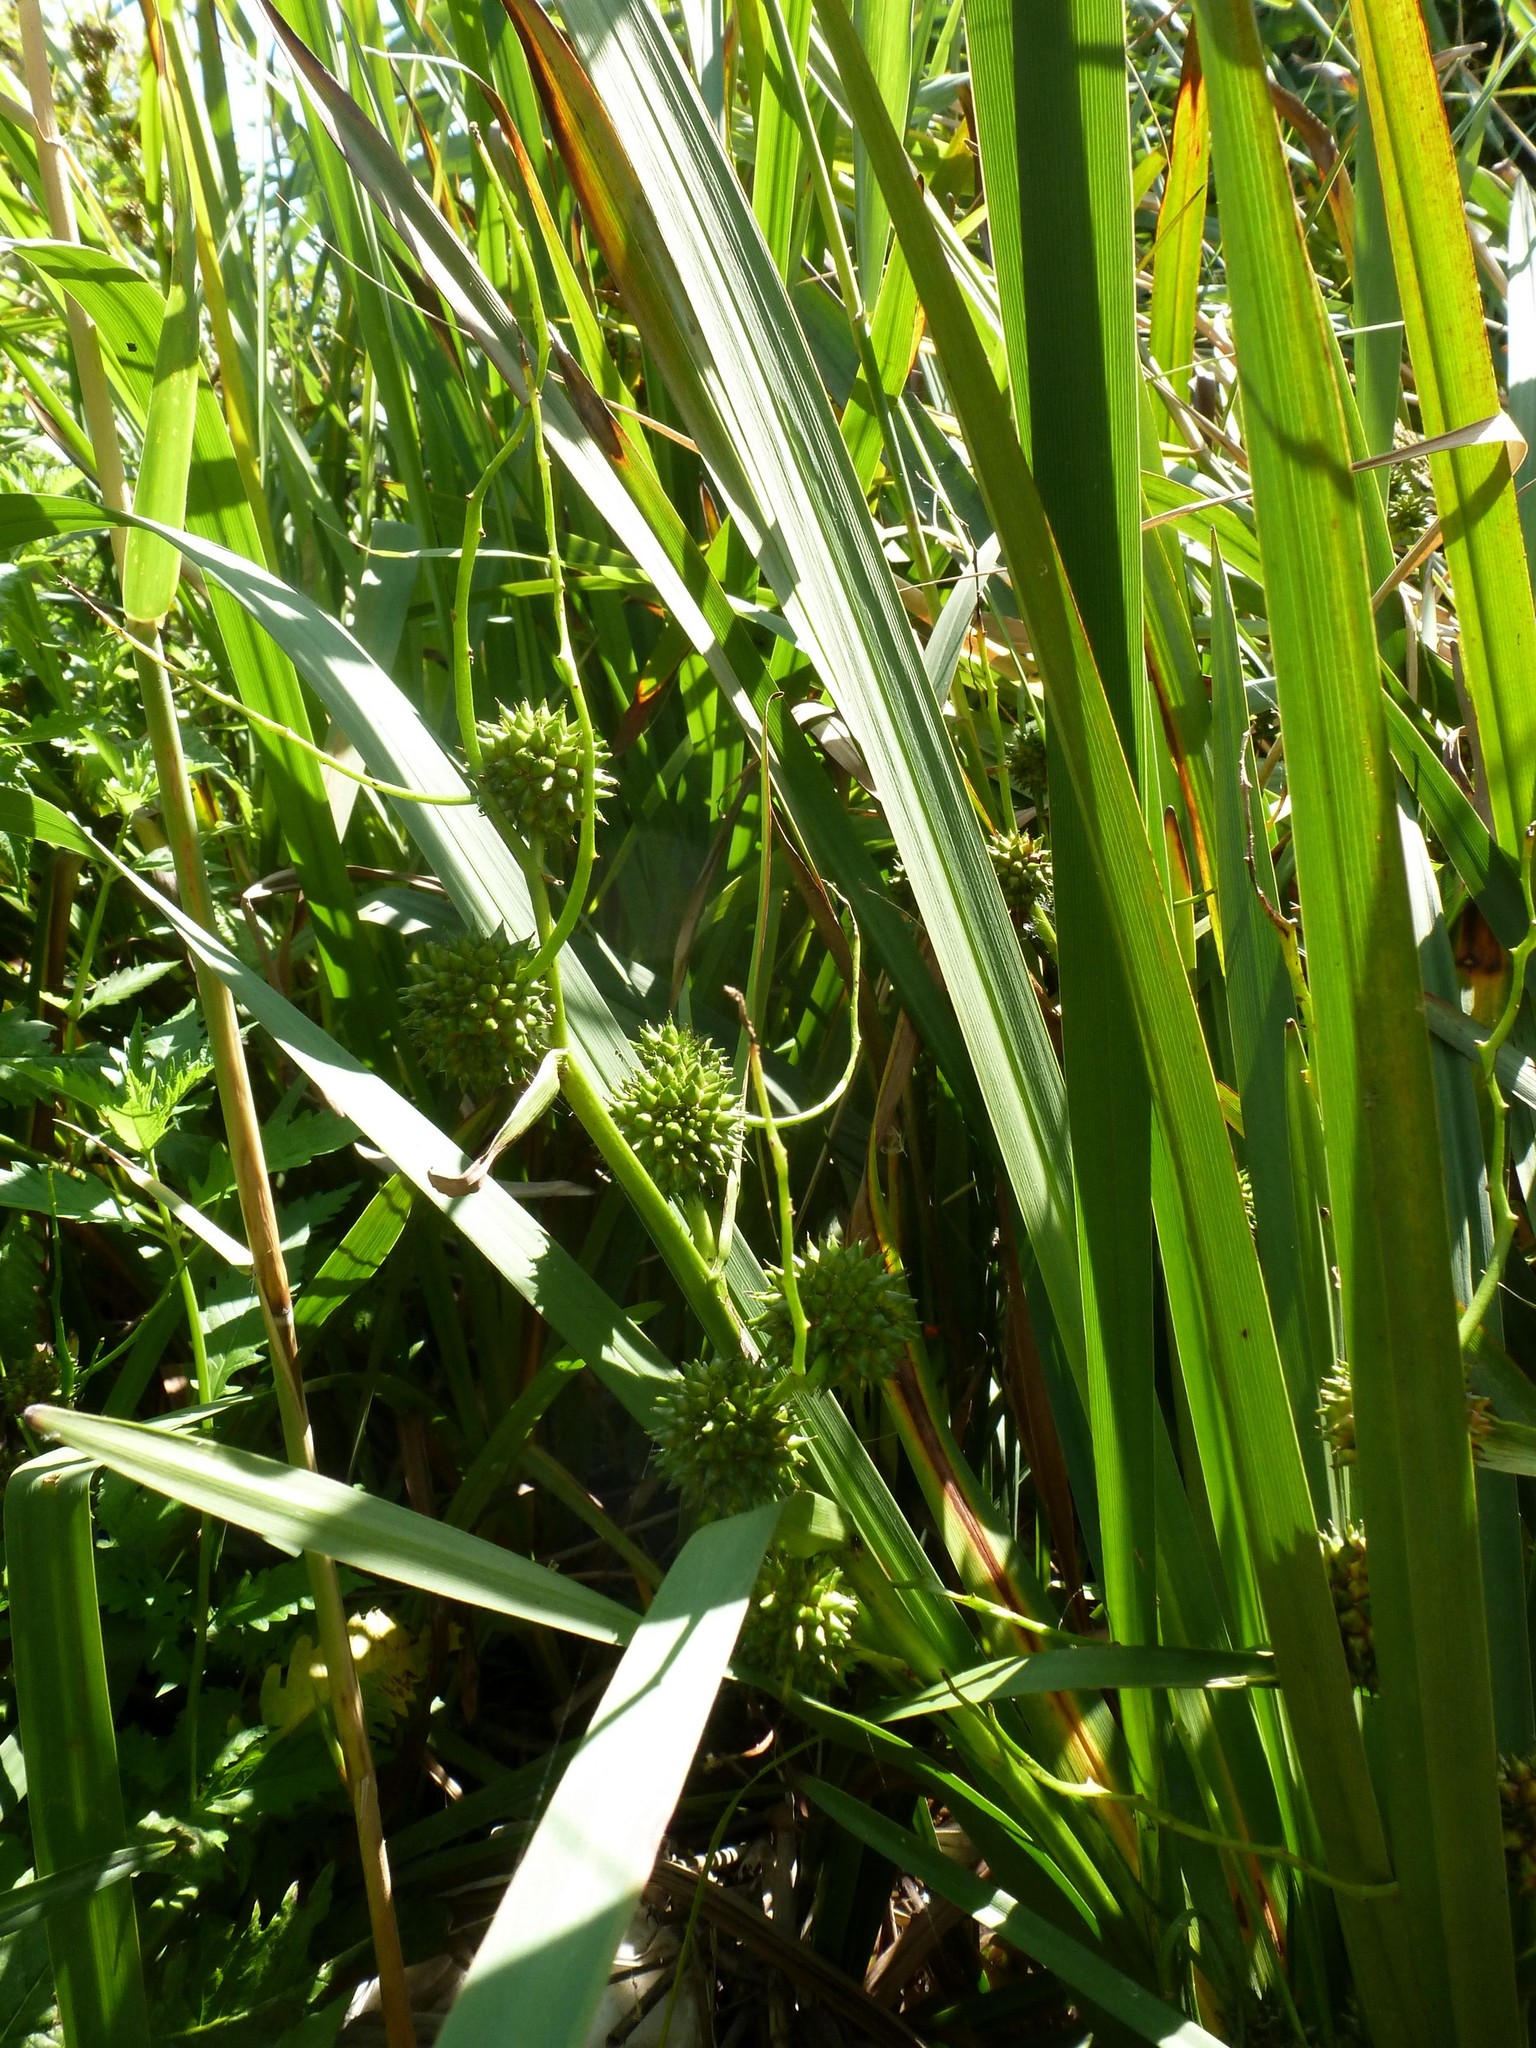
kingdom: Plantae
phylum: Tracheophyta
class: Liliopsida
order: Poales
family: Typhaceae
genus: Sparganium
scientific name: Sparganium erectum
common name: Branched bur-reed
